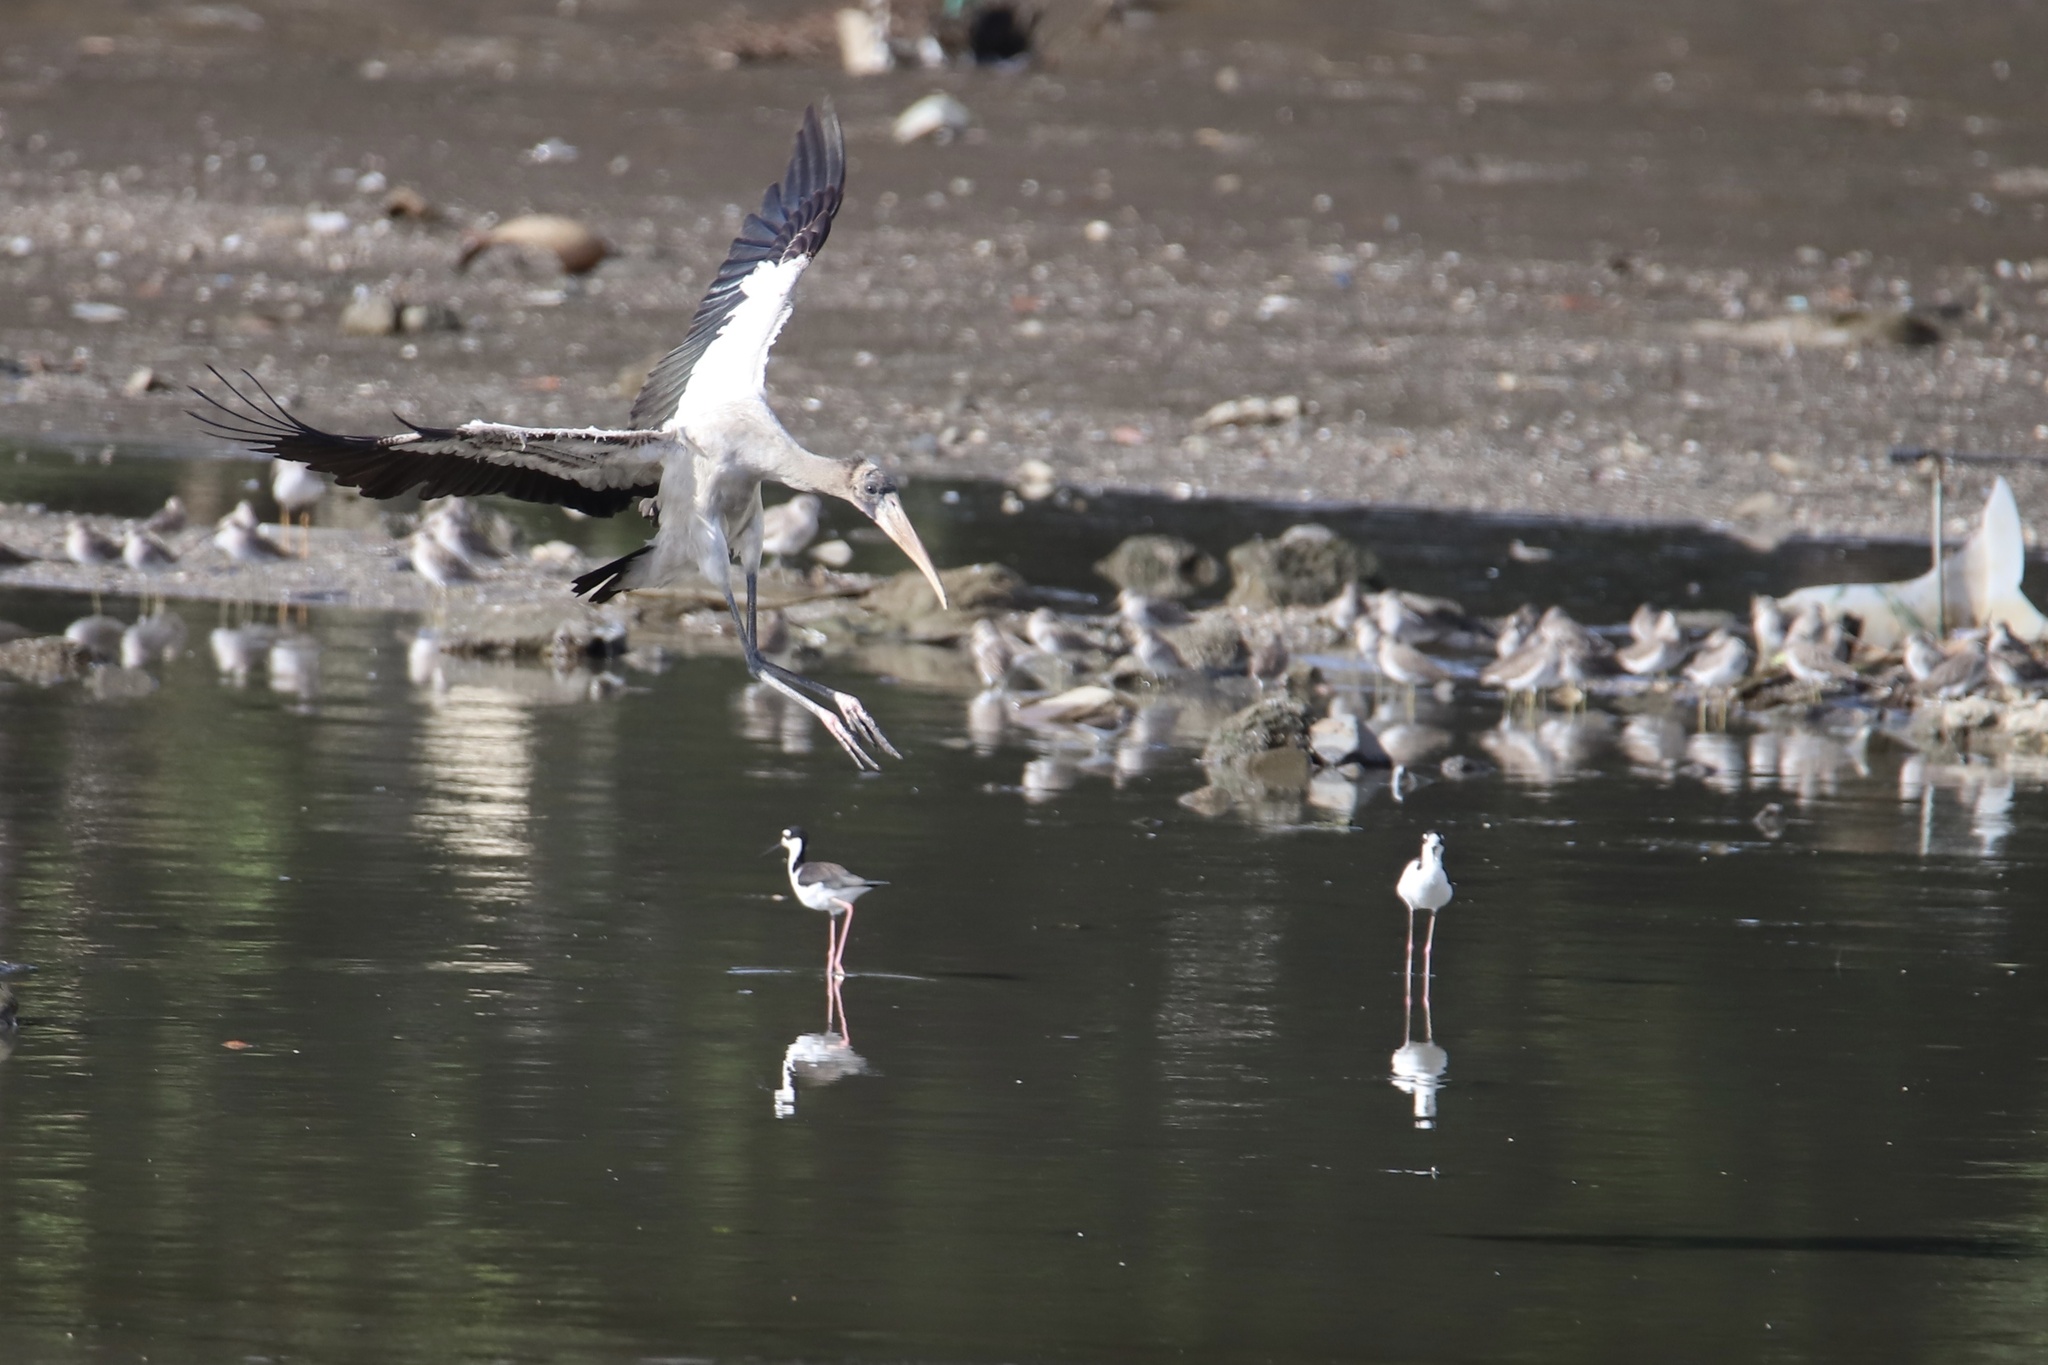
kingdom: Animalia
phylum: Chordata
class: Aves
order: Ciconiiformes
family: Ciconiidae
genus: Mycteria
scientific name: Mycteria americana
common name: Wood stork
